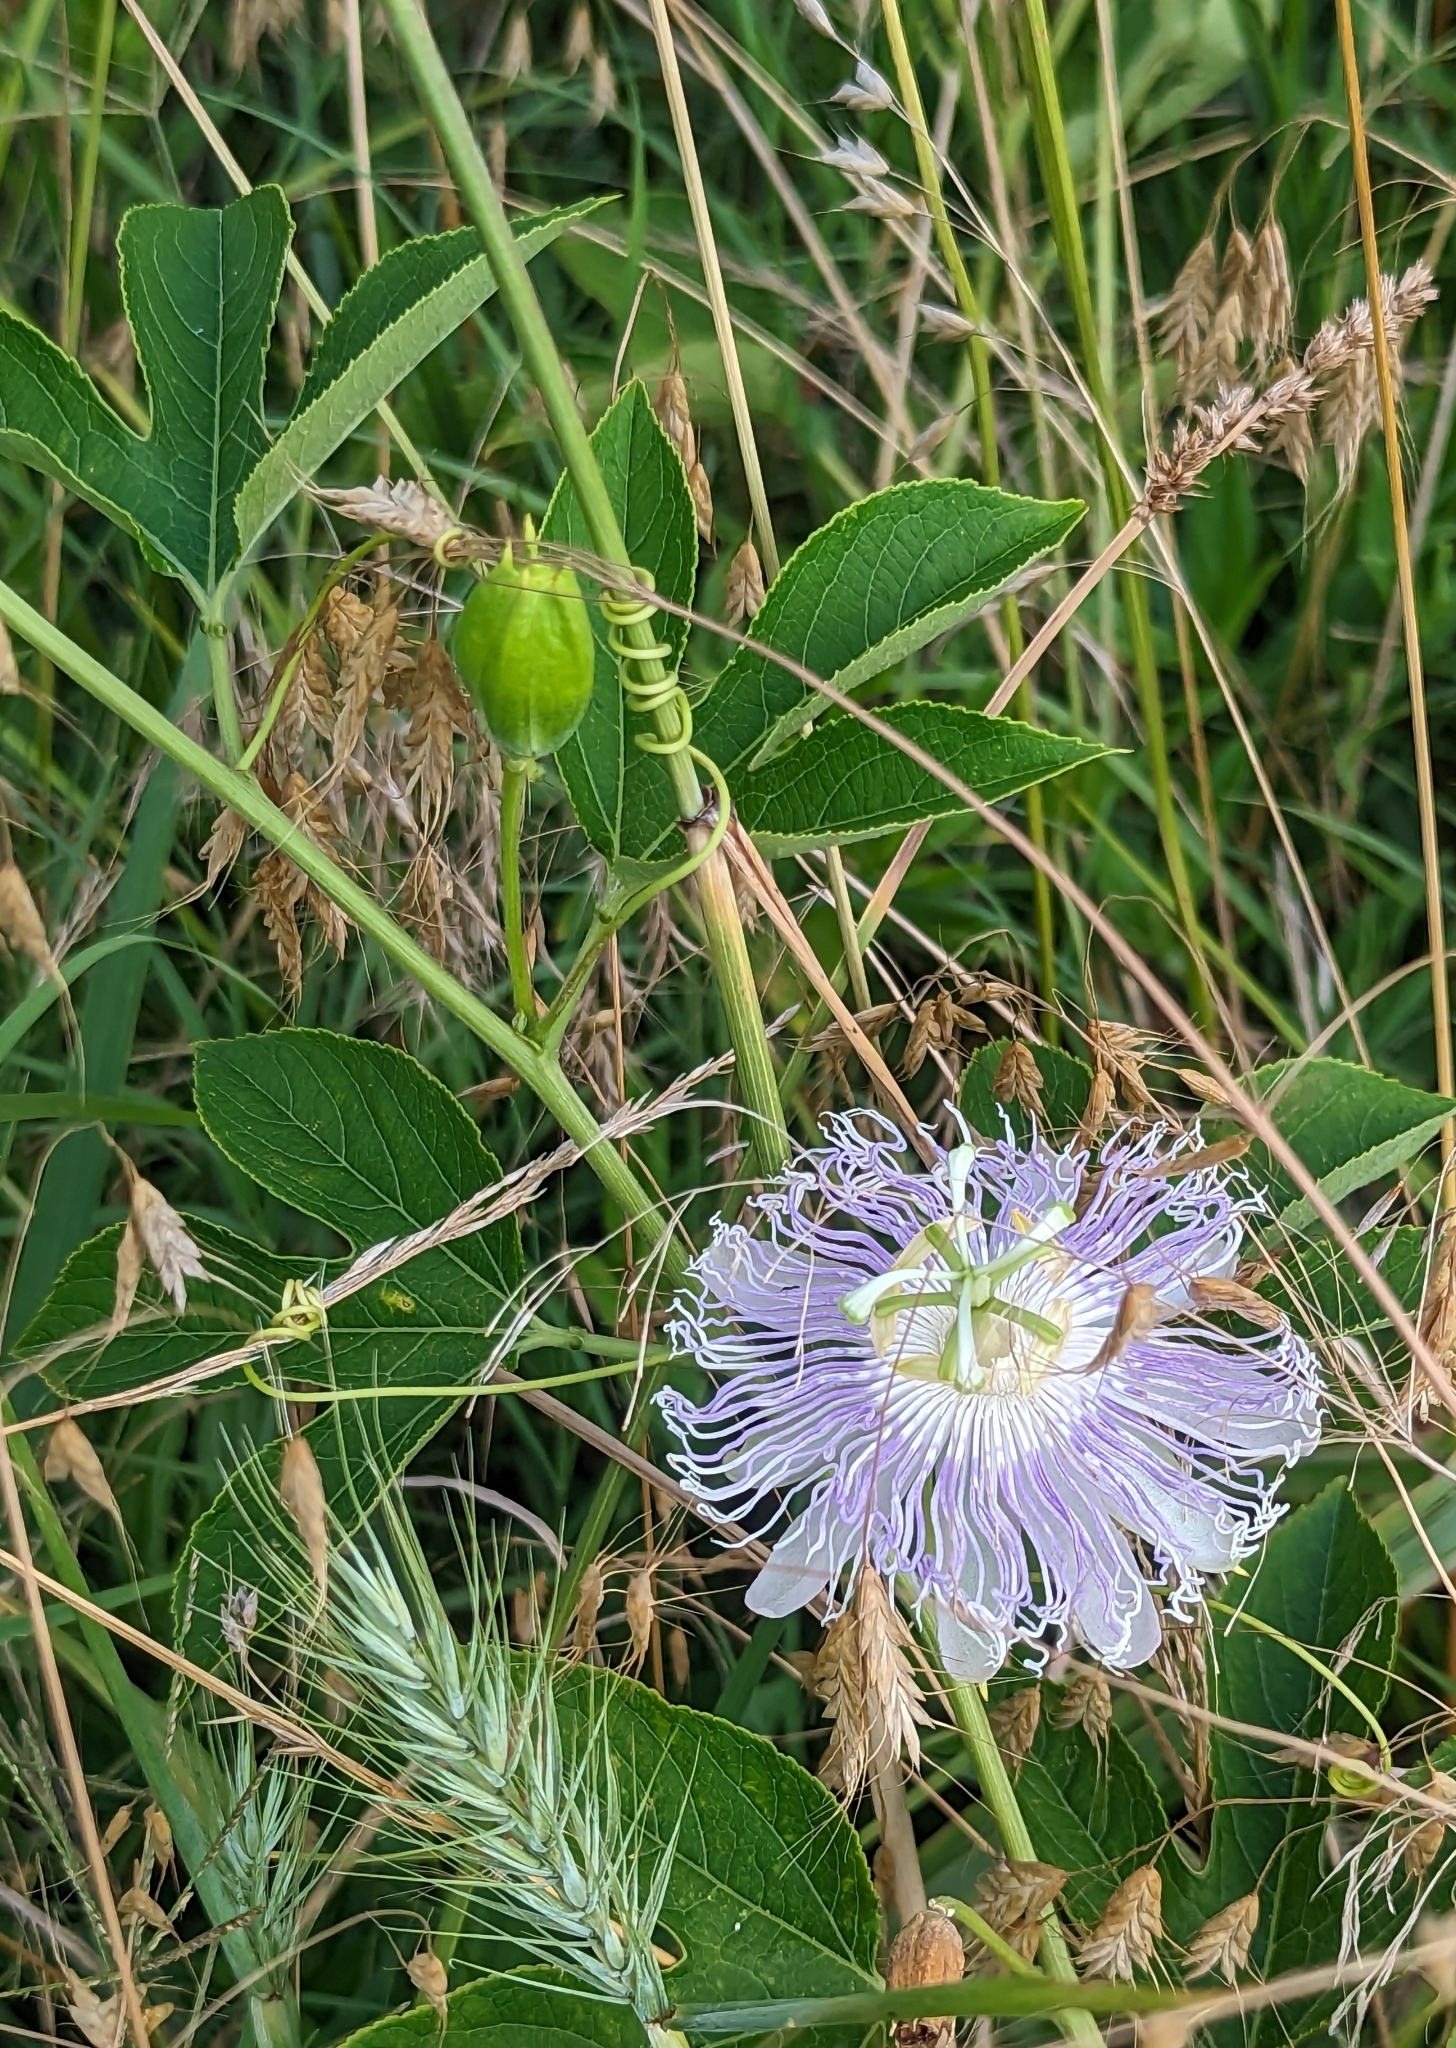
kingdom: Plantae
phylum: Tracheophyta
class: Magnoliopsida
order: Malpighiales
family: Passifloraceae
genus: Passiflora
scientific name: Passiflora incarnata
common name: Apricot-vine
